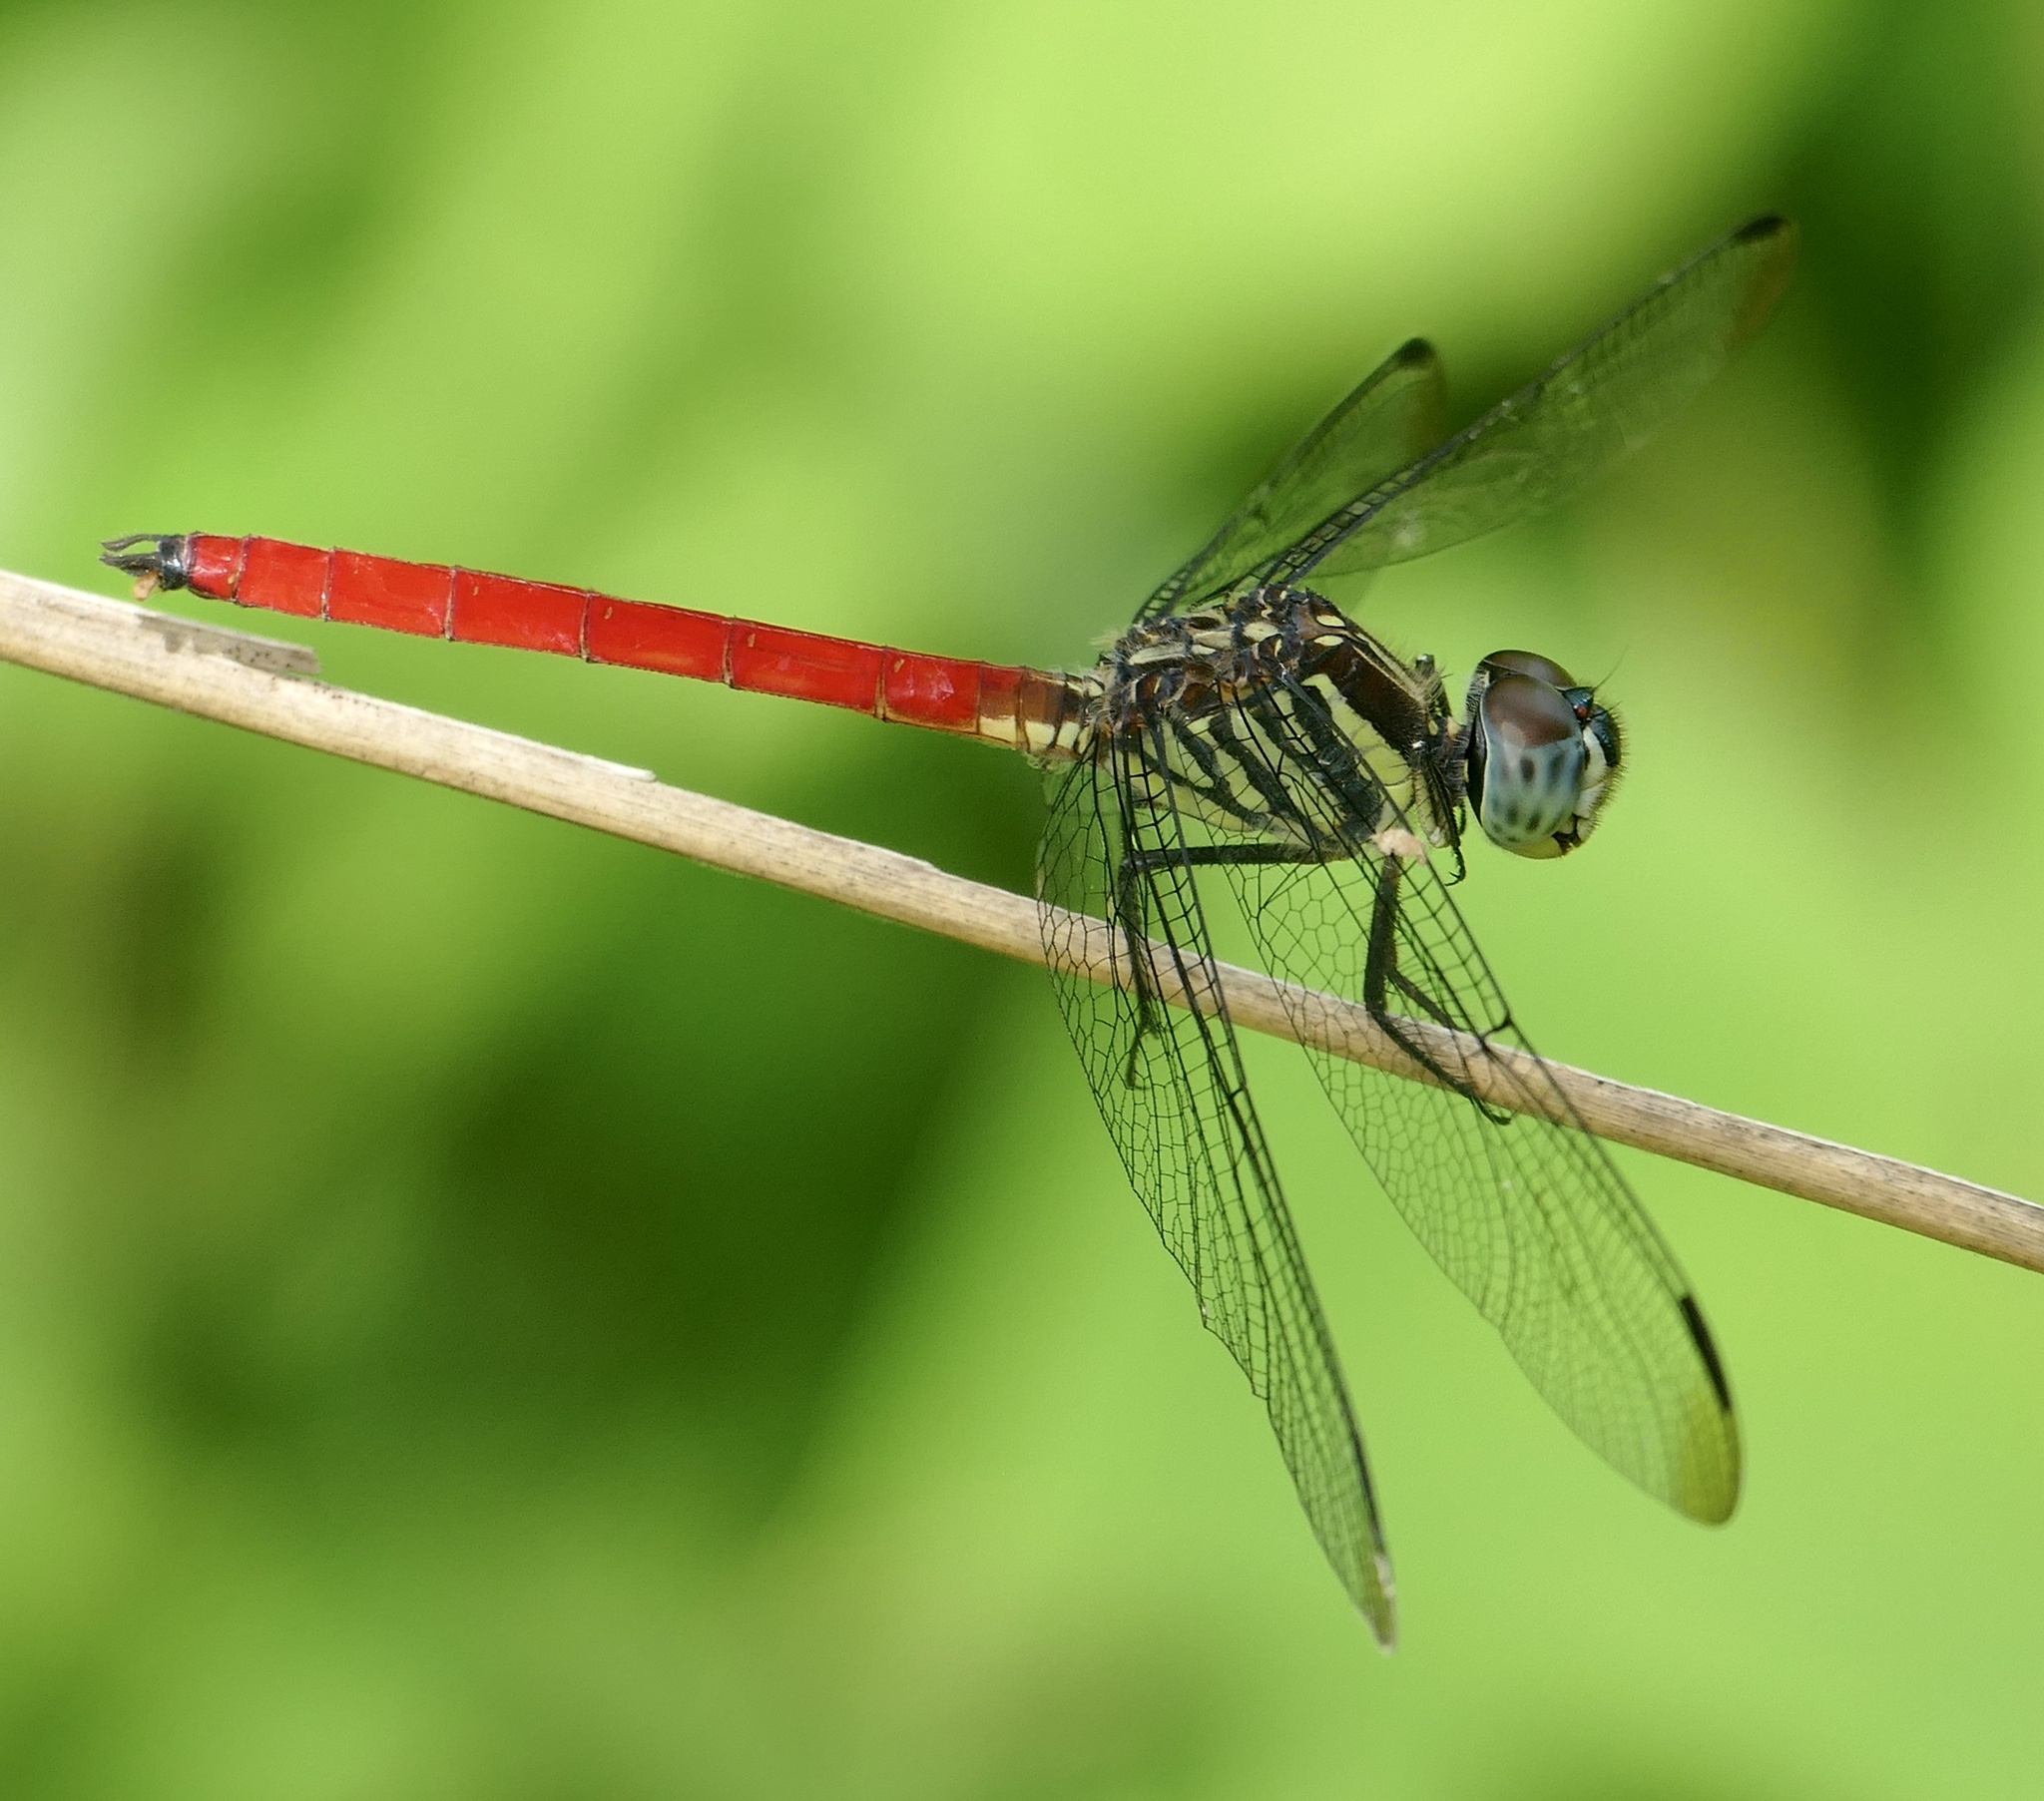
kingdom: Animalia
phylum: Arthropoda
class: Insecta
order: Odonata
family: Libellulidae
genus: Lathrecista
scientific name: Lathrecista asiatica
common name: Scarlet grenadier
